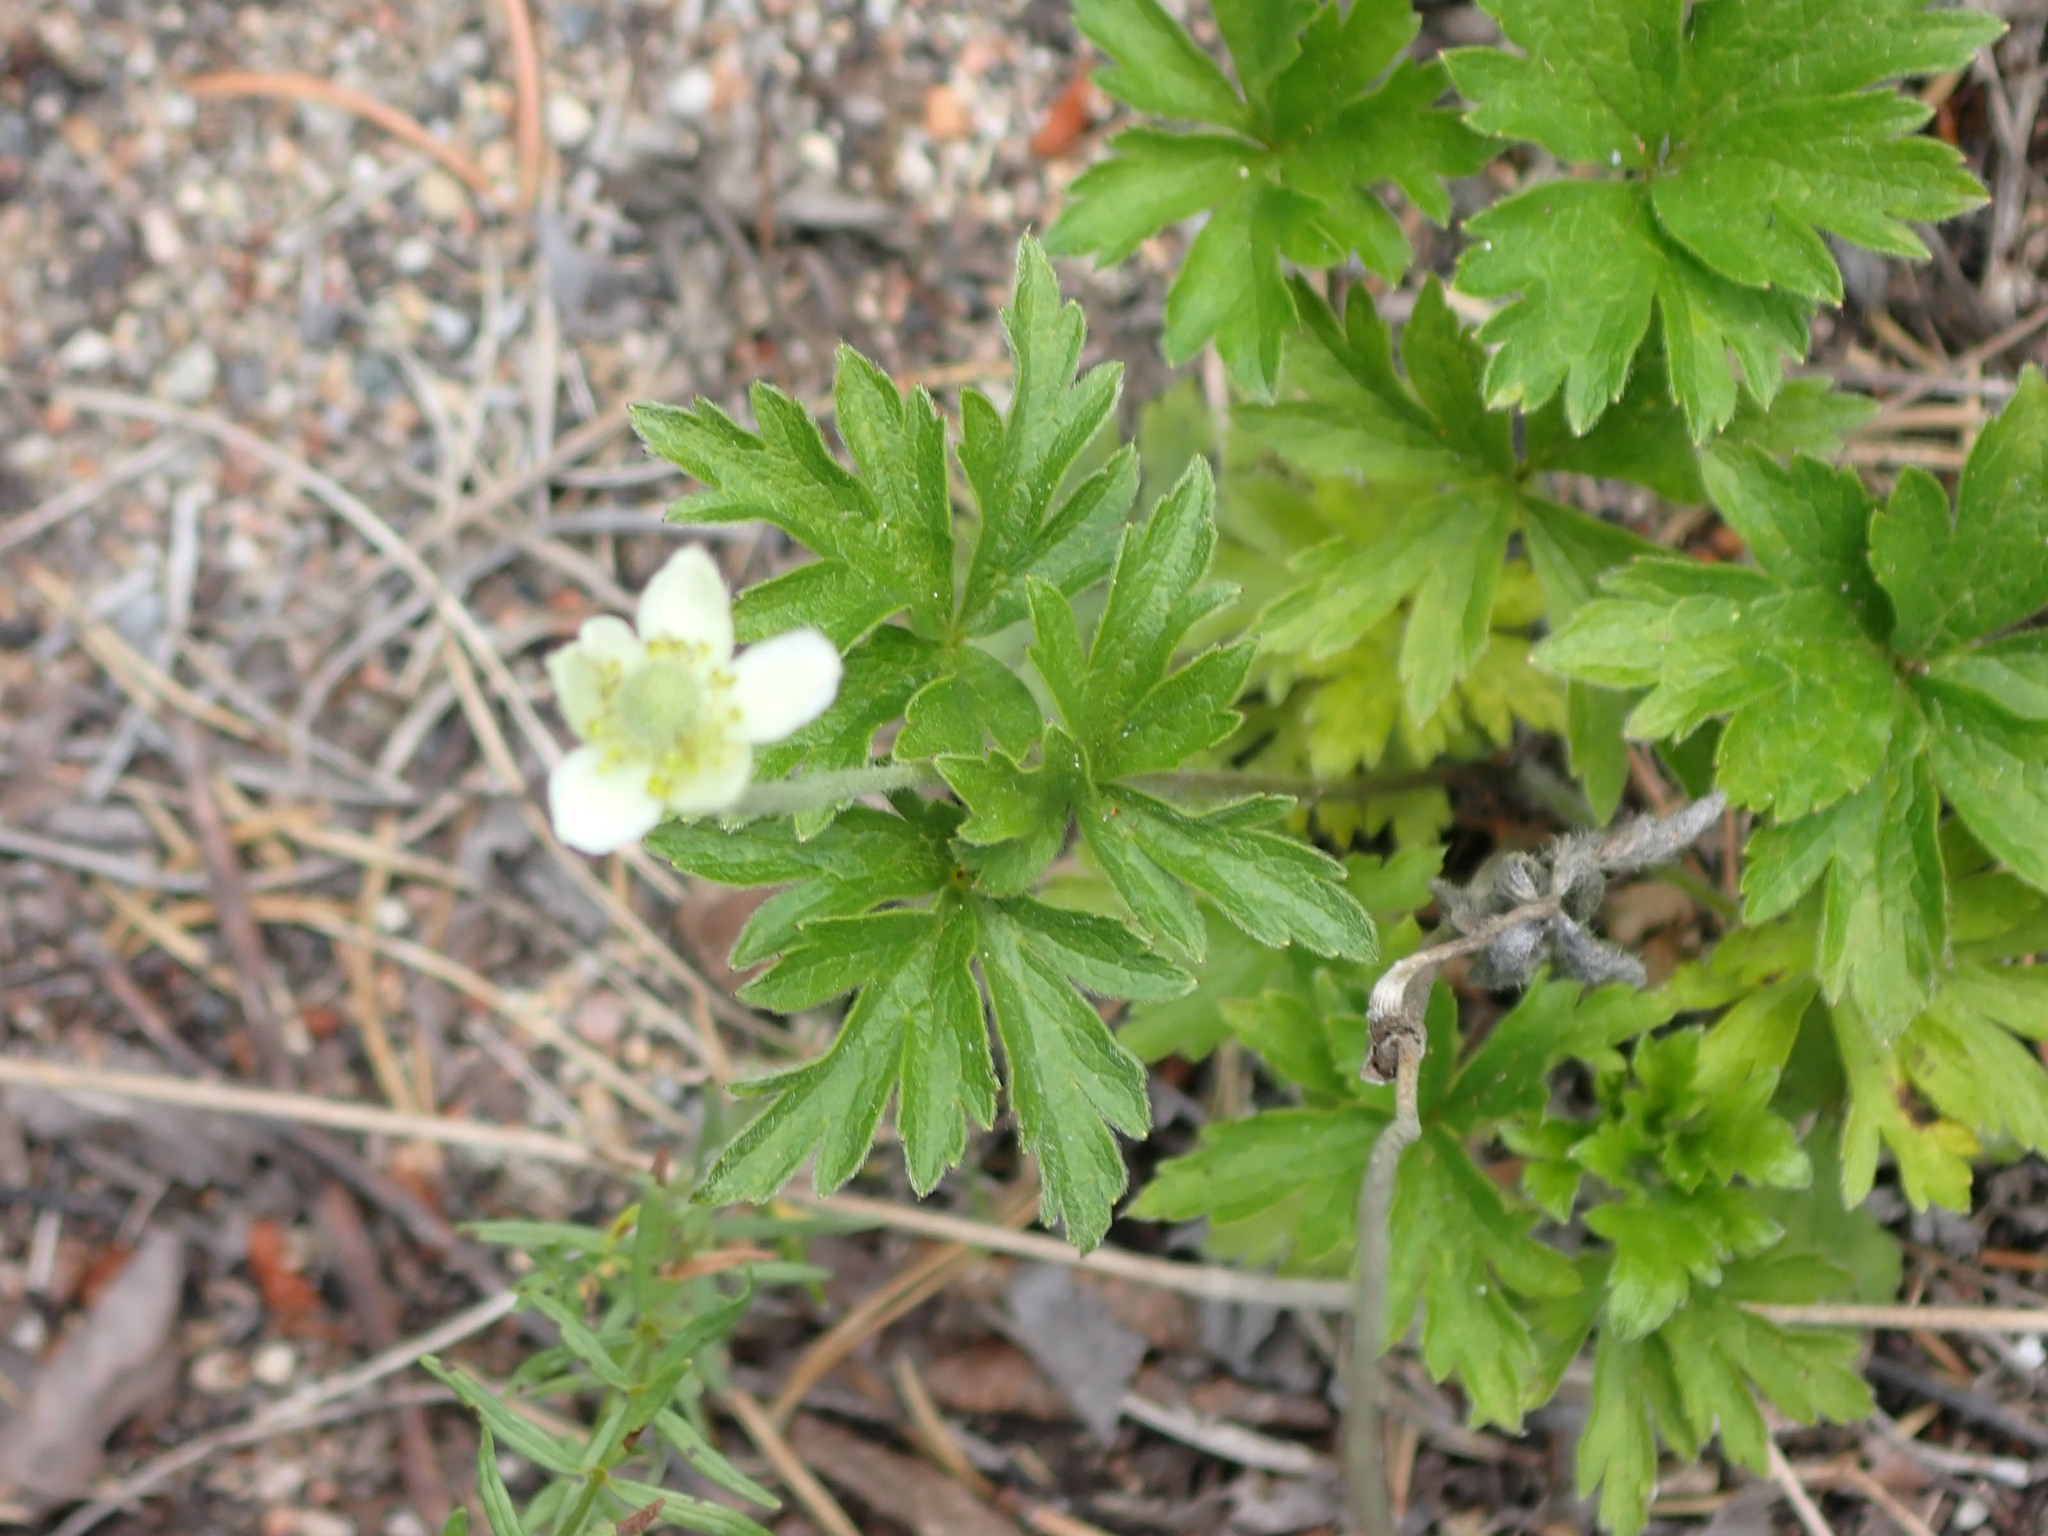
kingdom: Plantae
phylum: Tracheophyta
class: Magnoliopsida
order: Ranunculales
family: Ranunculaceae
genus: Anemone
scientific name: Anemone cylindrica
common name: Candle anemone
